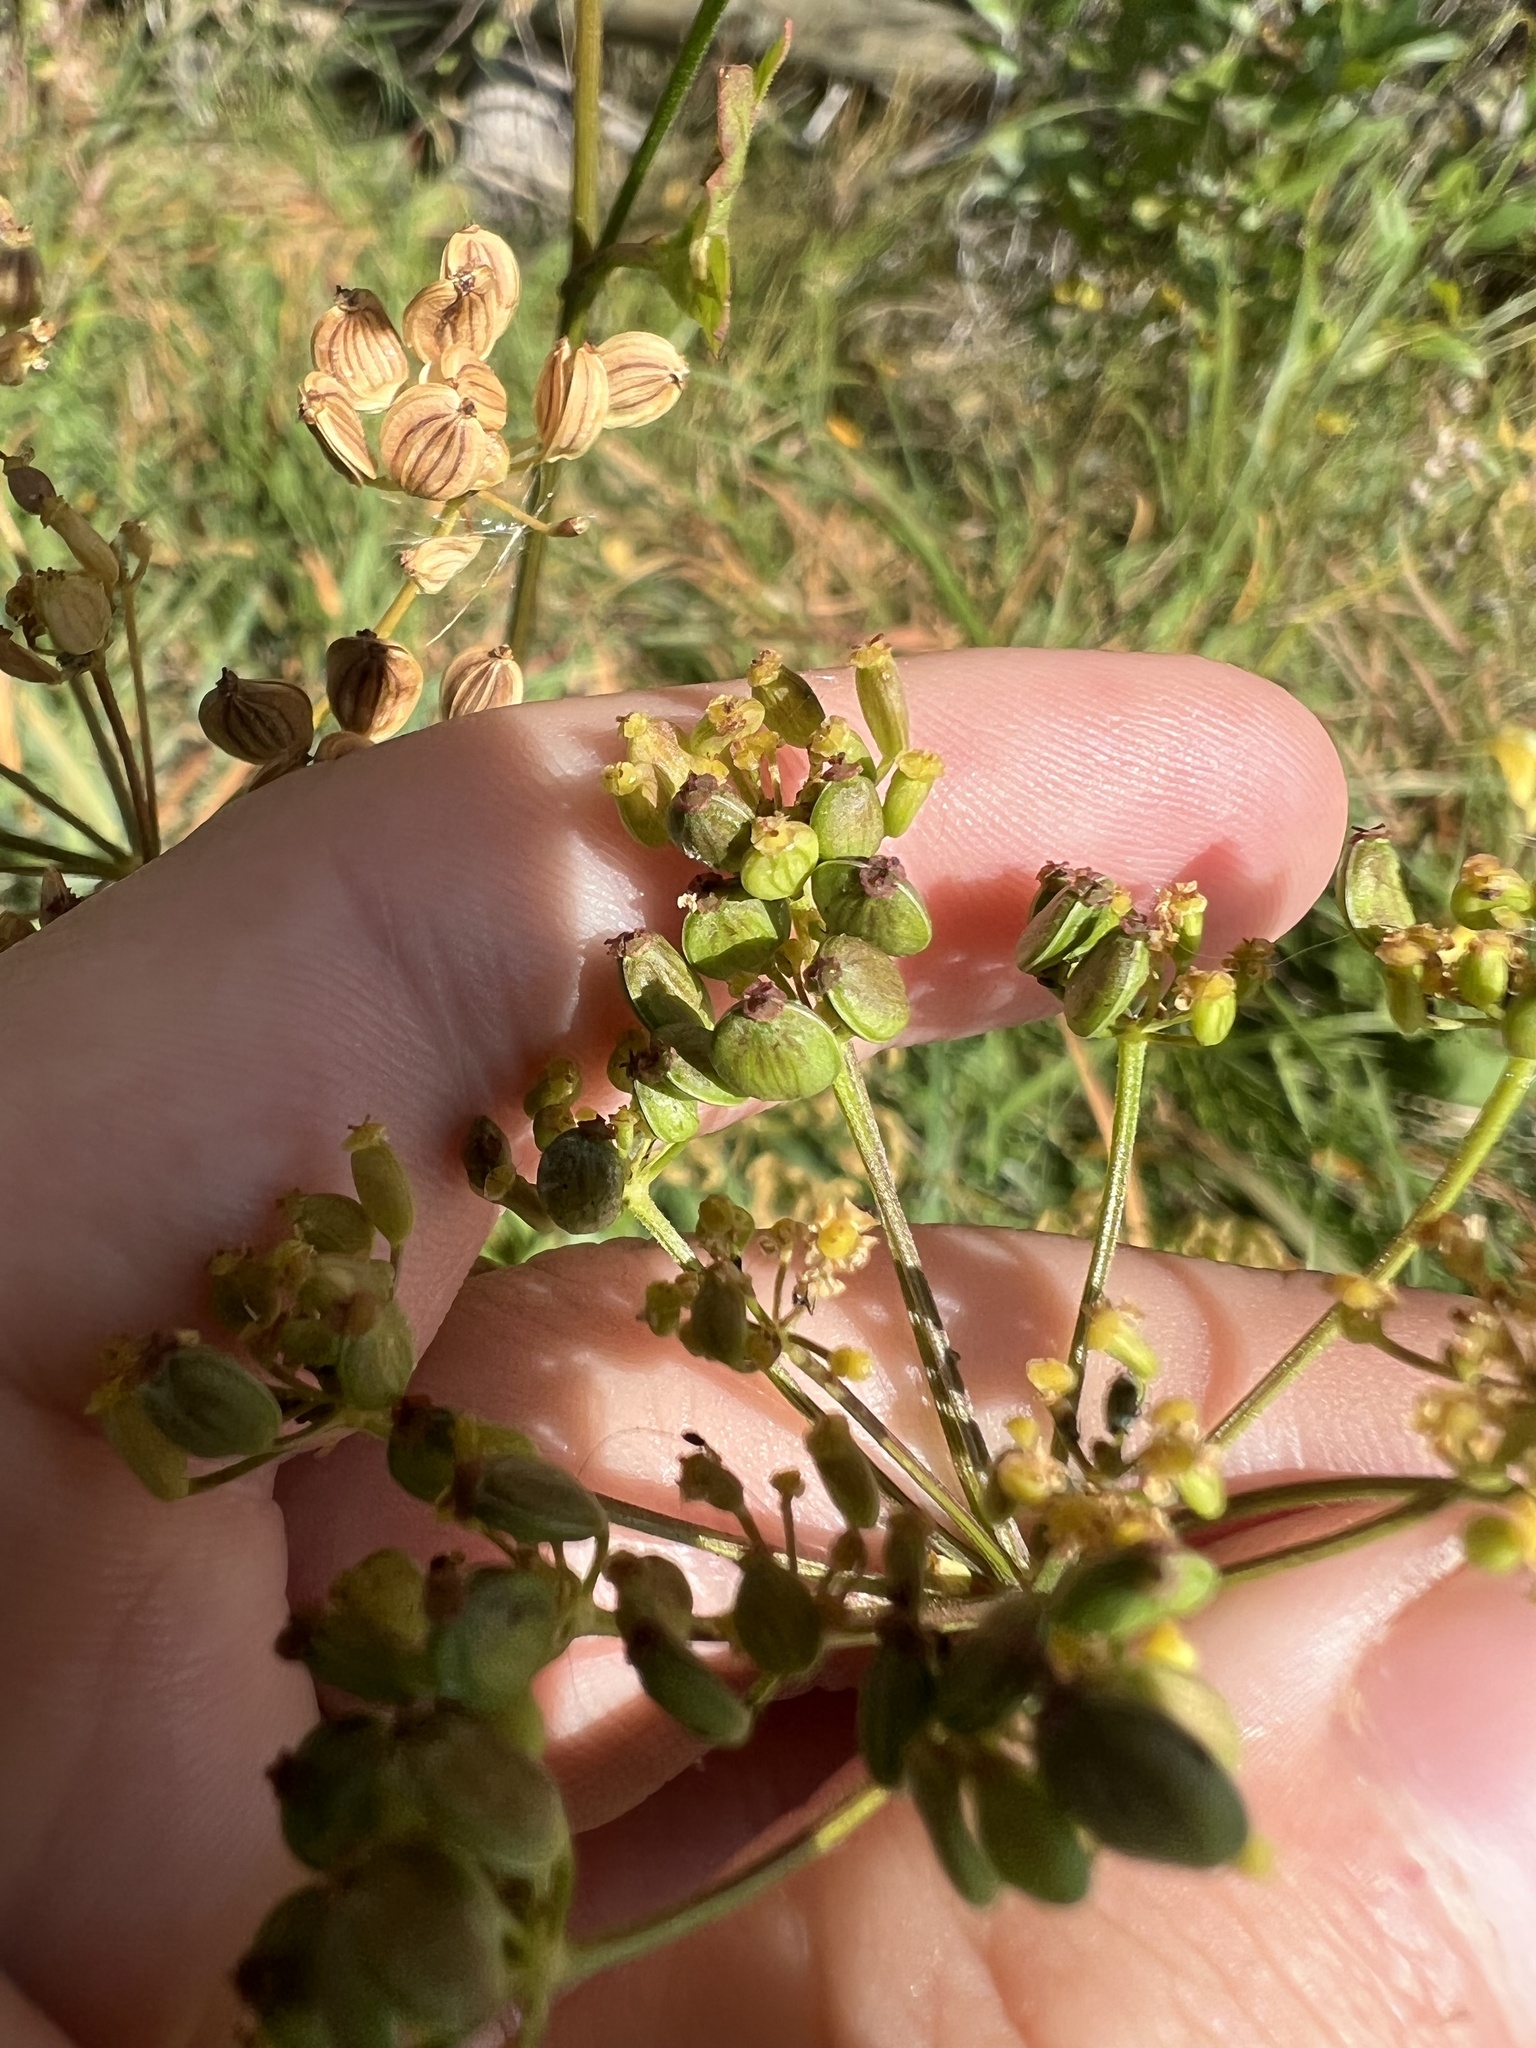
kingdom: Plantae
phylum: Tracheophyta
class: Magnoliopsida
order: Apiales
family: Apiaceae
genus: Pastinaca
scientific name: Pastinaca sativa
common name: Wild parsnip
